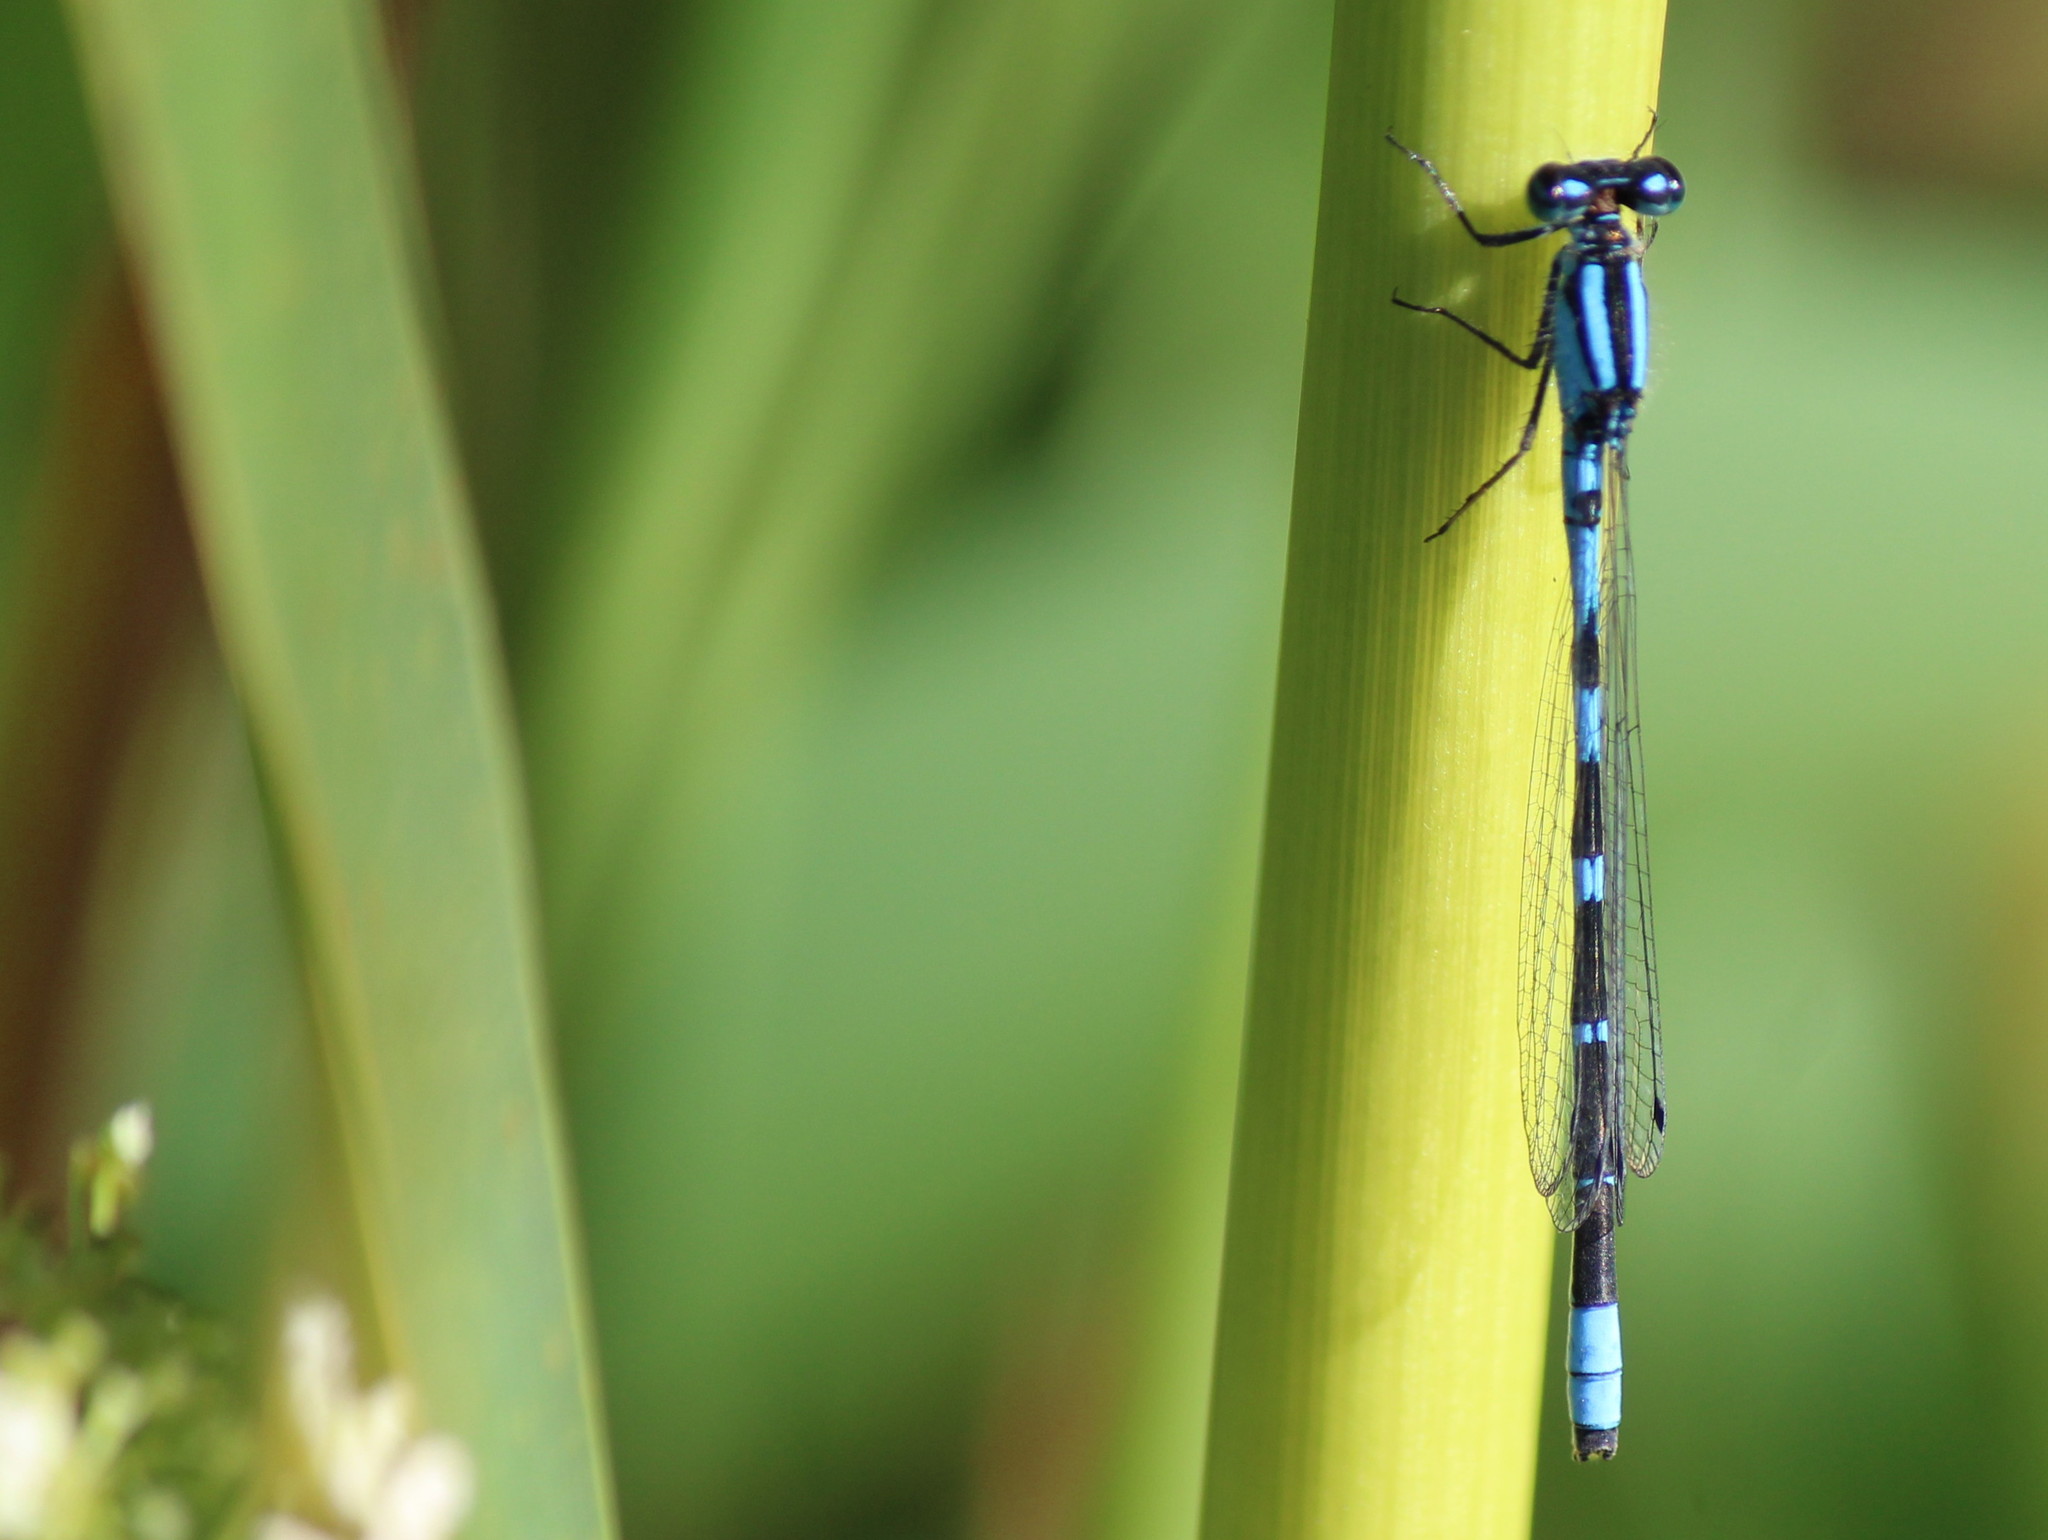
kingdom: Animalia
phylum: Arthropoda
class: Insecta
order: Odonata
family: Coenagrionidae
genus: Enallagma
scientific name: Enallagma carunculatum
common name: Tule bluet
